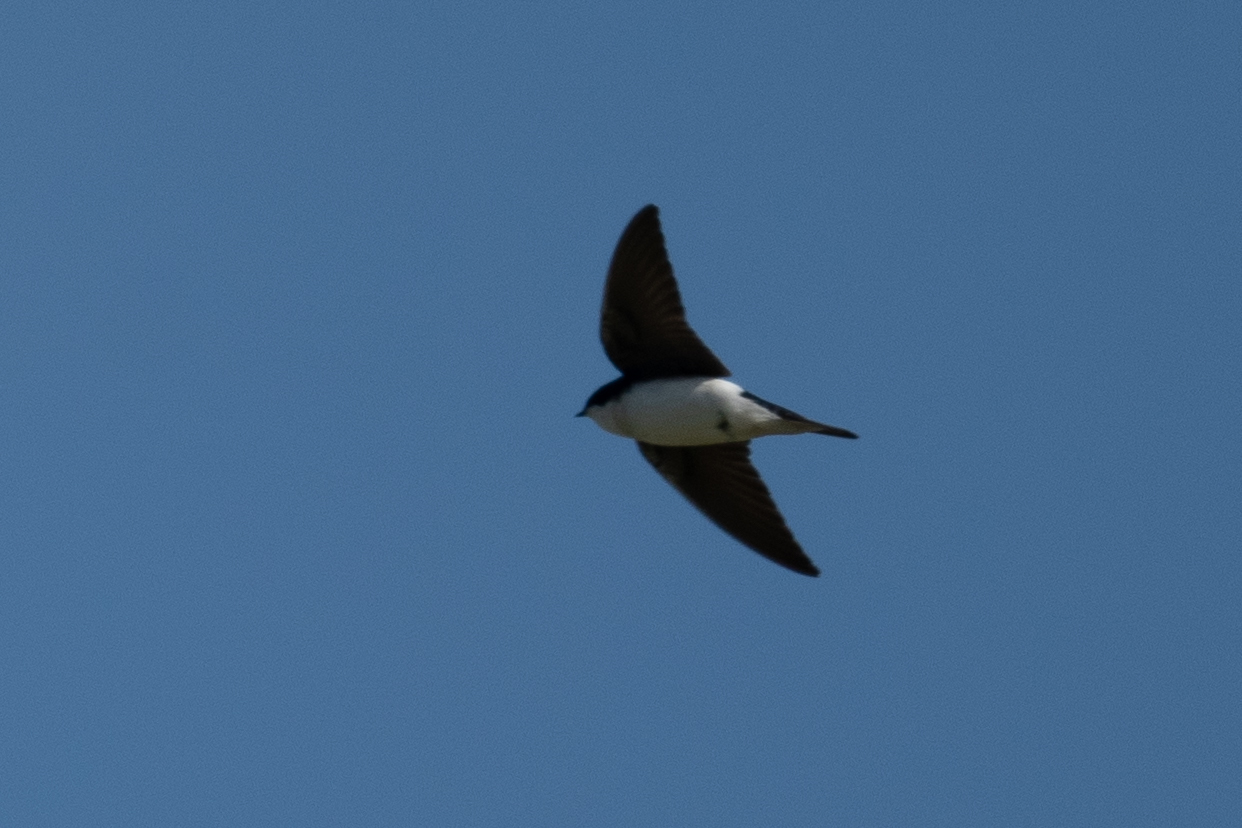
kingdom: Animalia
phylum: Chordata
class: Aves
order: Passeriformes
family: Hirundinidae
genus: Tachycineta
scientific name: Tachycineta bicolor
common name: Tree swallow
